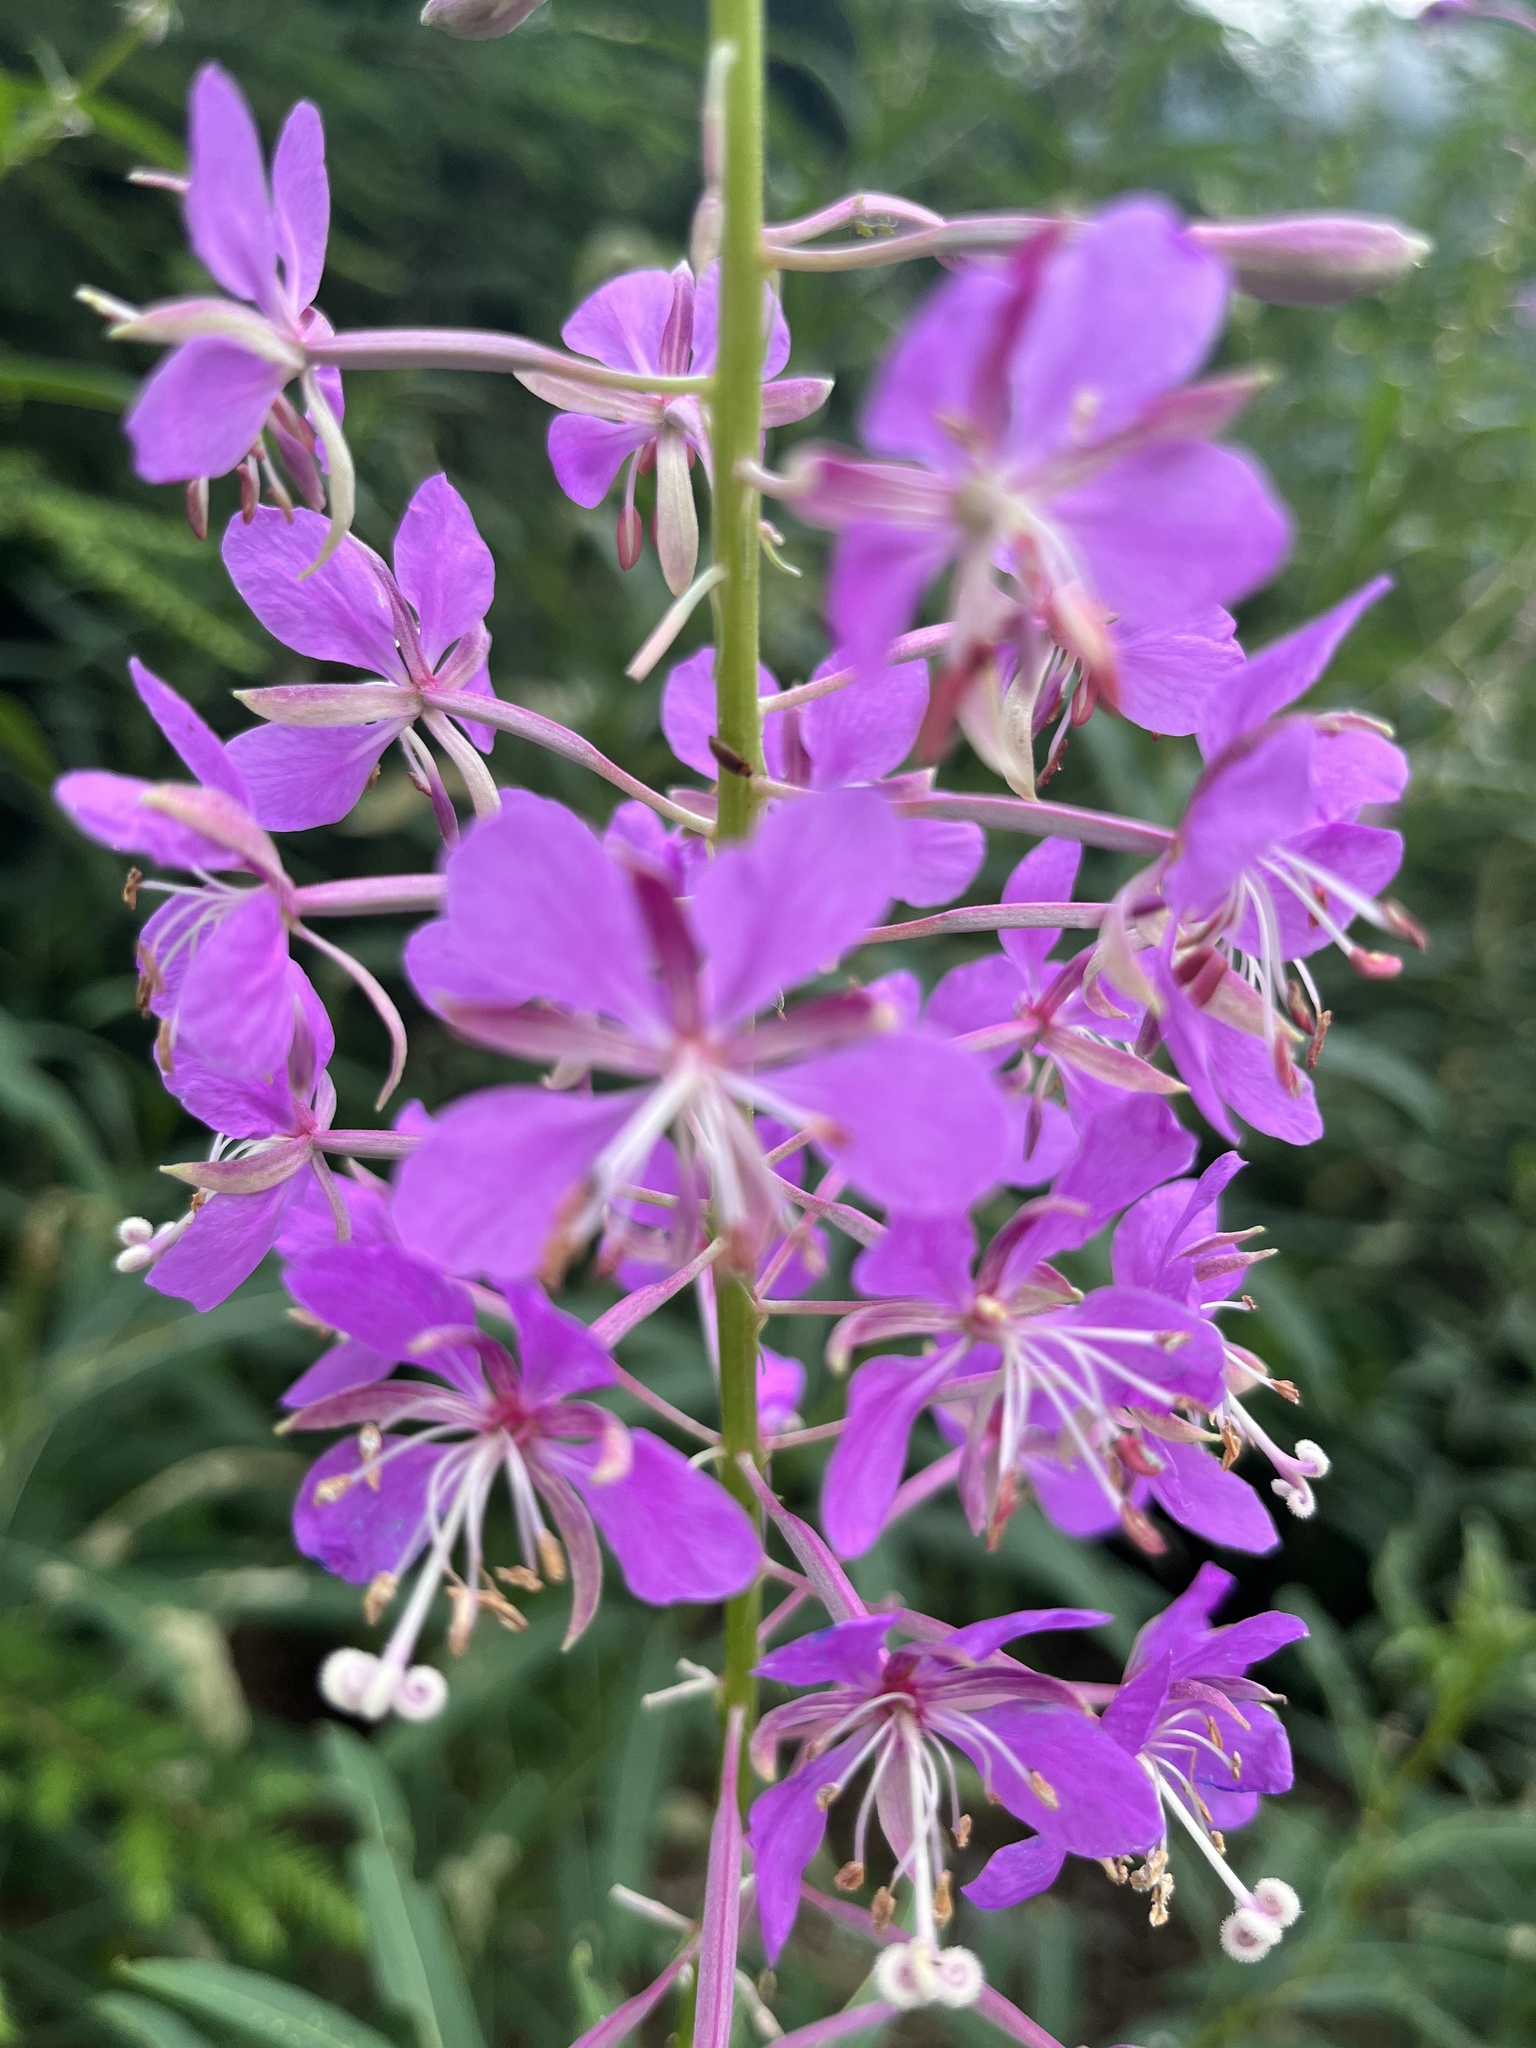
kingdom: Plantae
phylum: Tracheophyta
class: Magnoliopsida
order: Myrtales
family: Onagraceae
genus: Chamaenerion
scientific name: Chamaenerion angustifolium
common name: Fireweed
